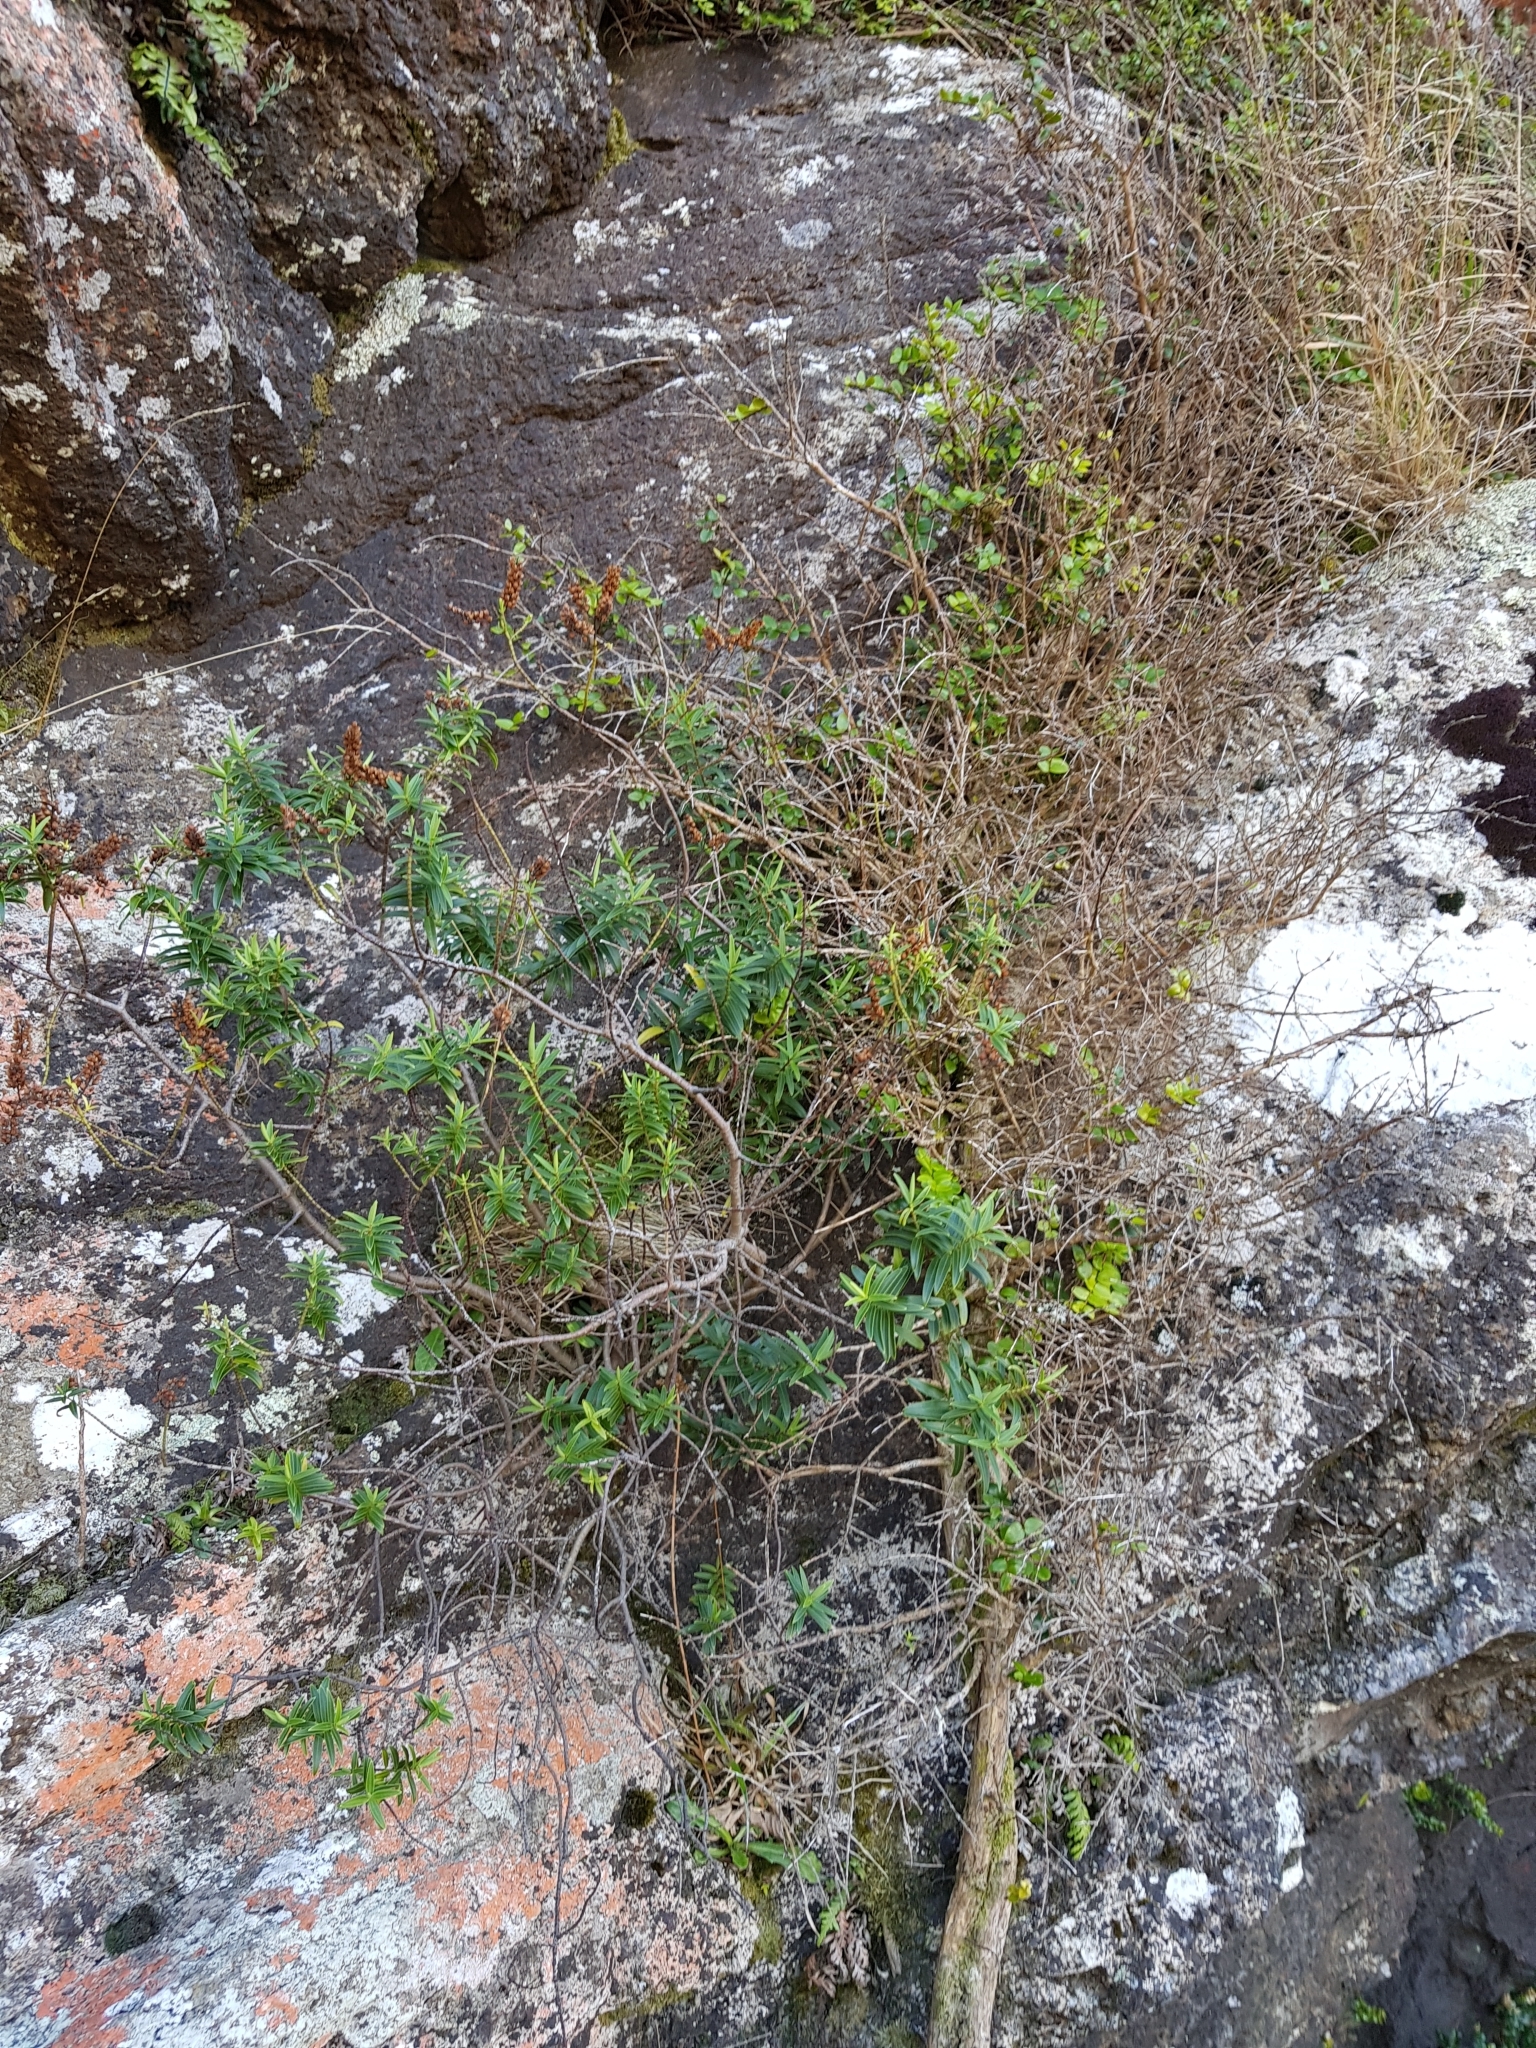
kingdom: Plantae
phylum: Tracheophyta
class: Magnoliopsida
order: Lamiales
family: Plantaginaceae
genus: Veronica
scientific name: Veronica strictissima
